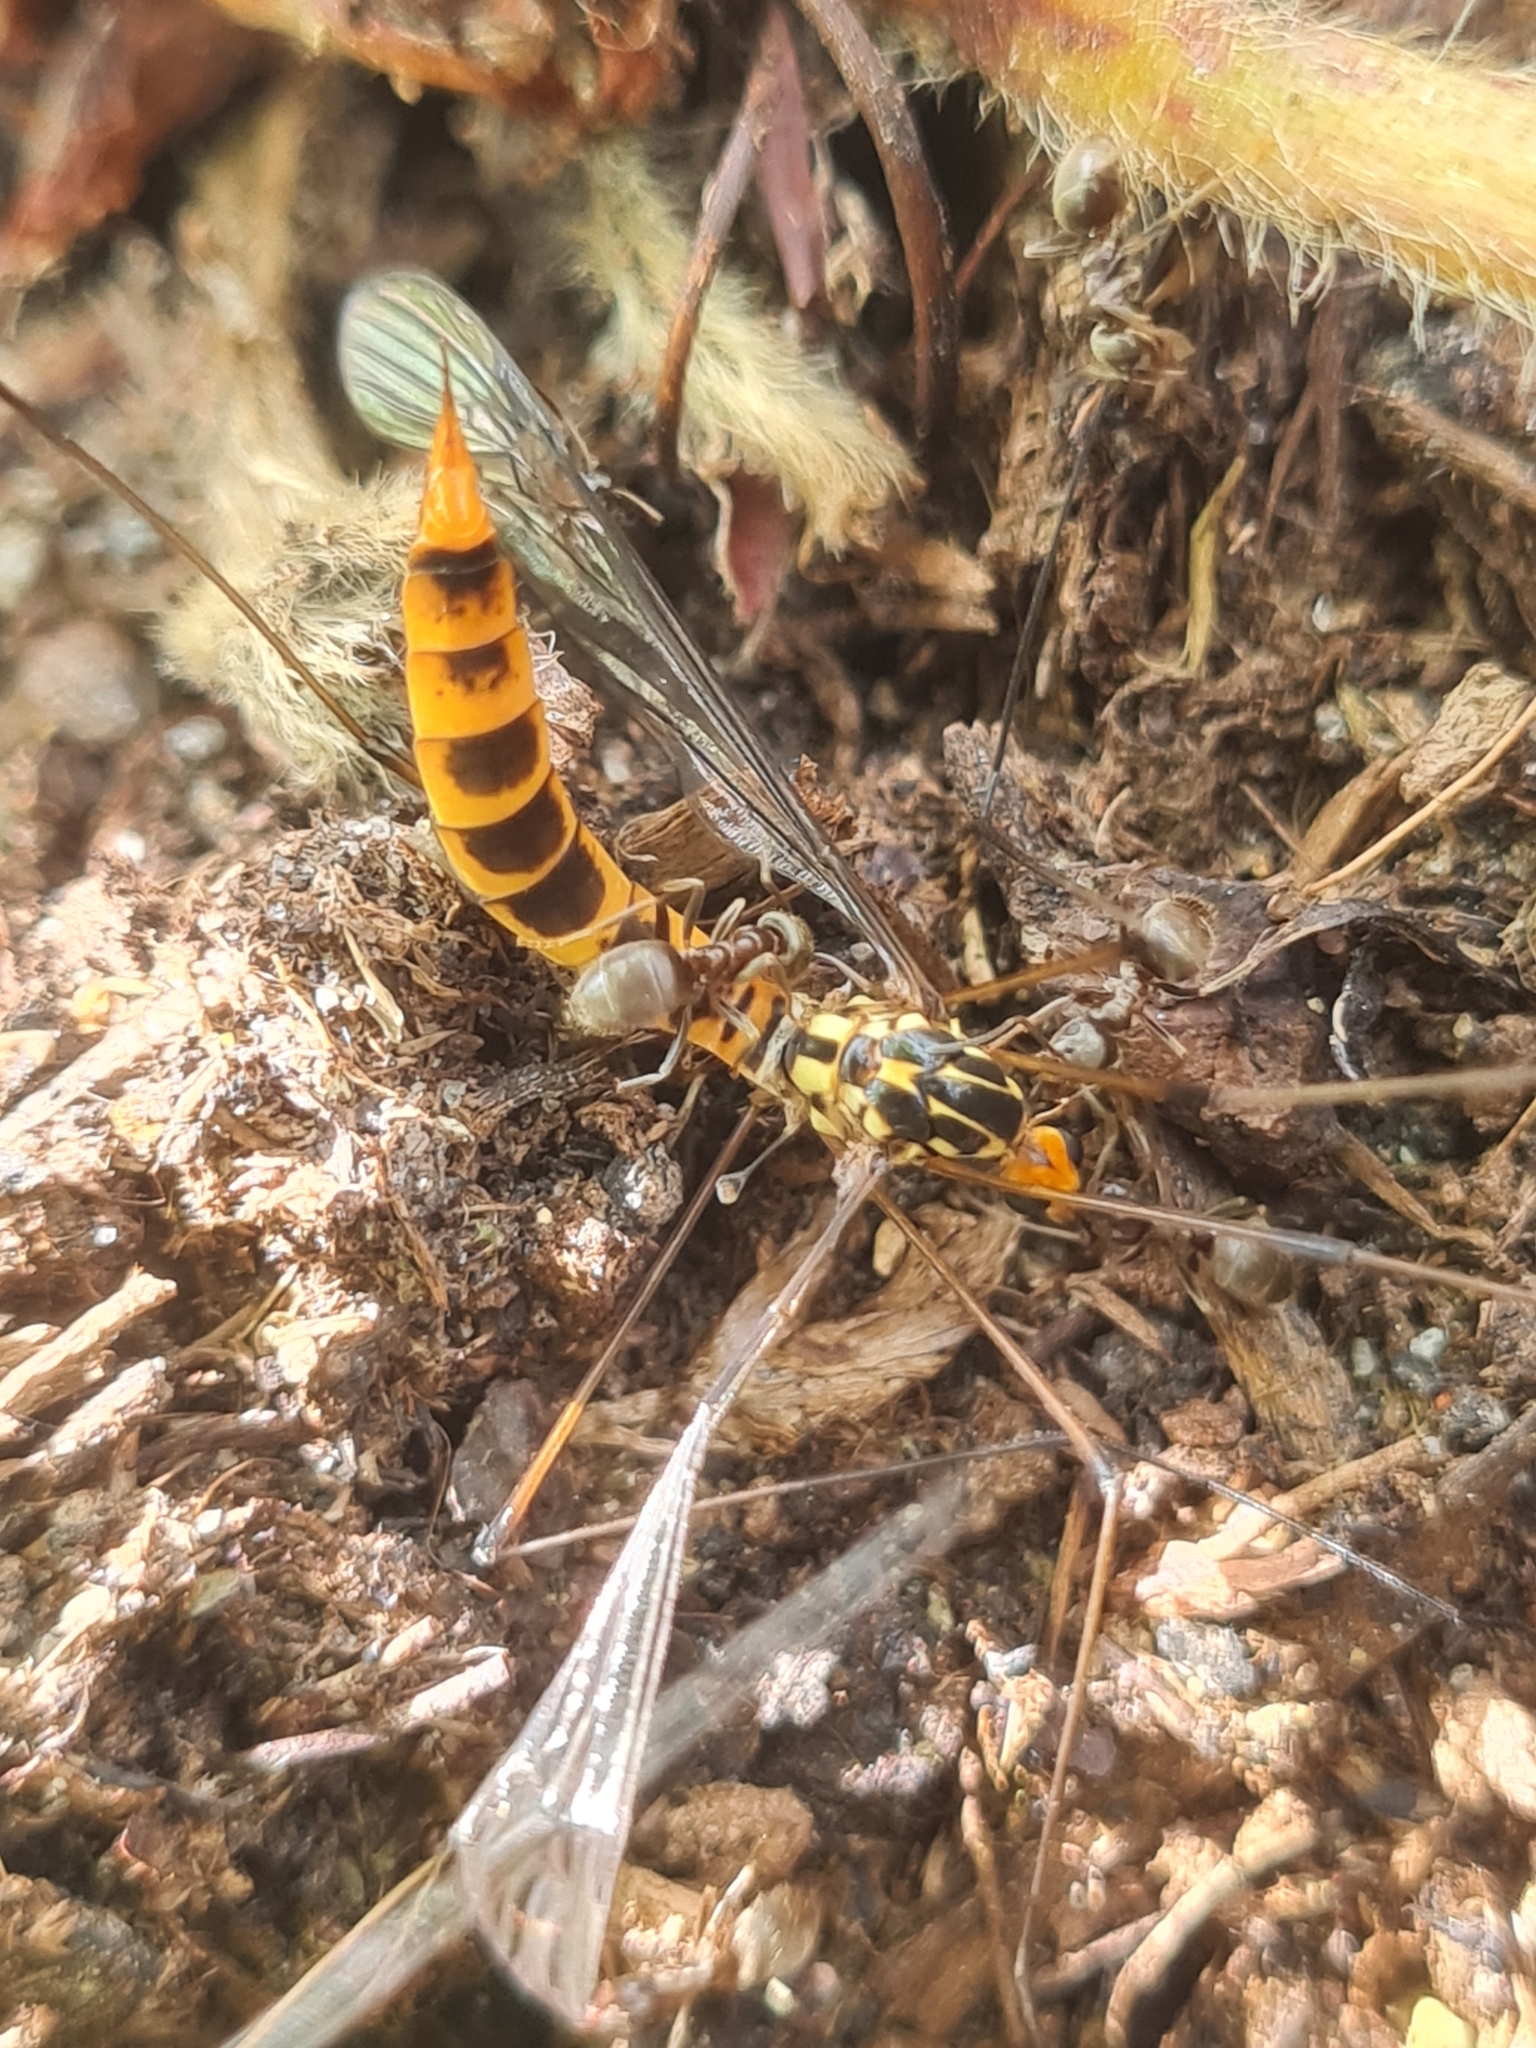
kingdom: Animalia
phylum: Arthropoda
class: Insecta
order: Diptera
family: Tipulidae
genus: Nephrotoma
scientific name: Nephrotoma flavipalpis
